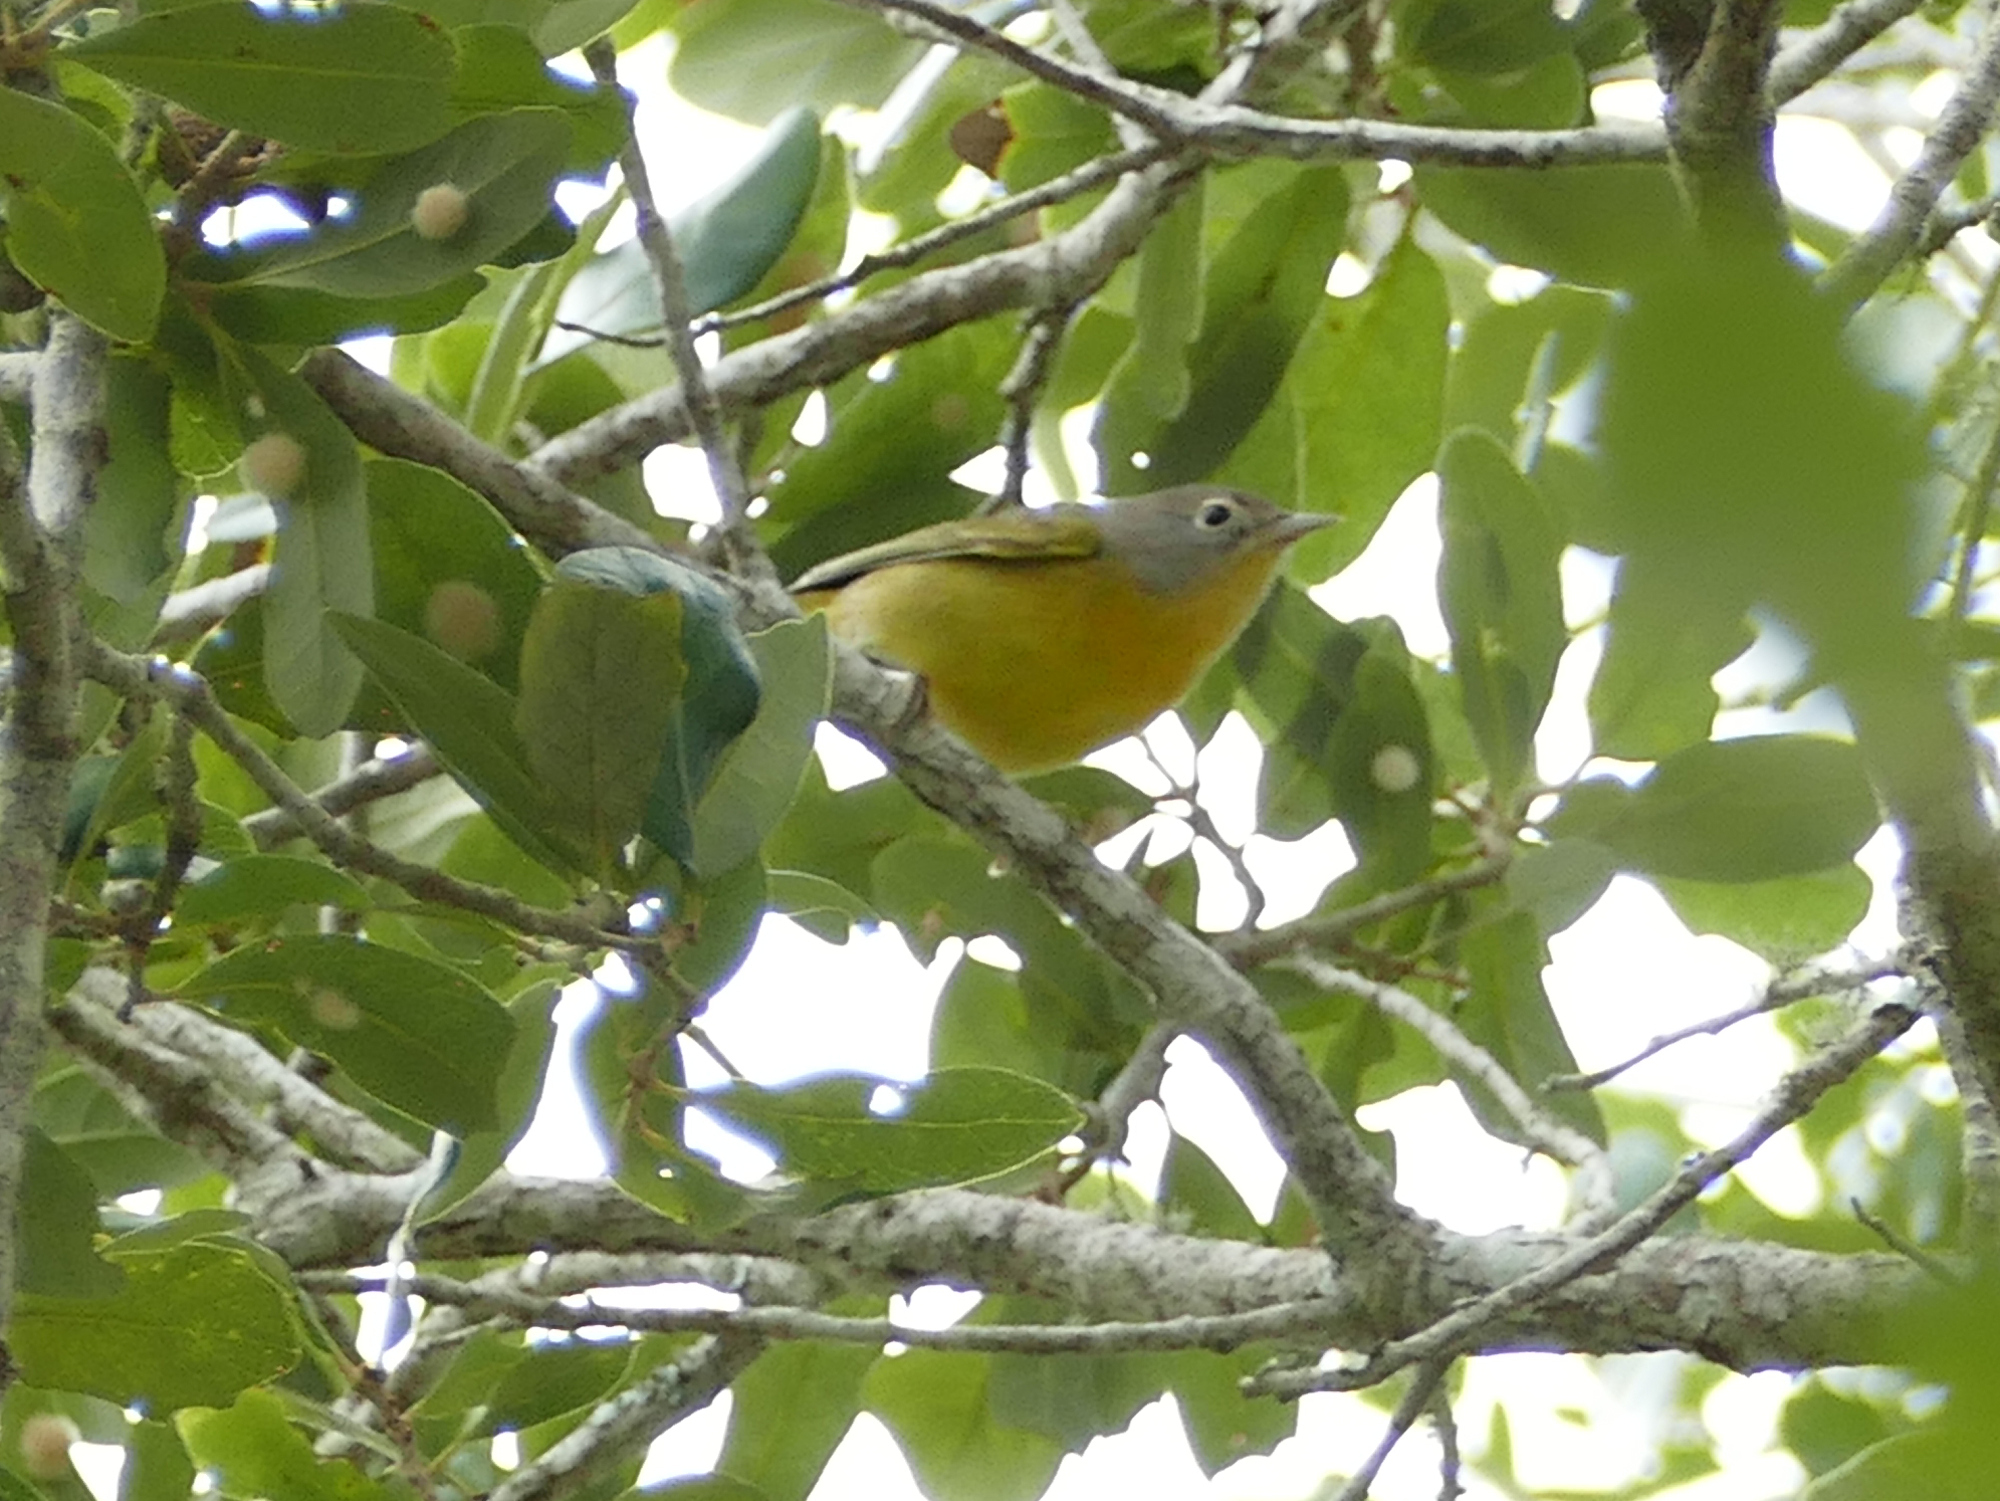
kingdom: Animalia
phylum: Chordata
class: Aves
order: Passeriformes
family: Parulidae
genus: Leiothlypis
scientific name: Leiothlypis ruficapilla
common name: Nashville warbler
